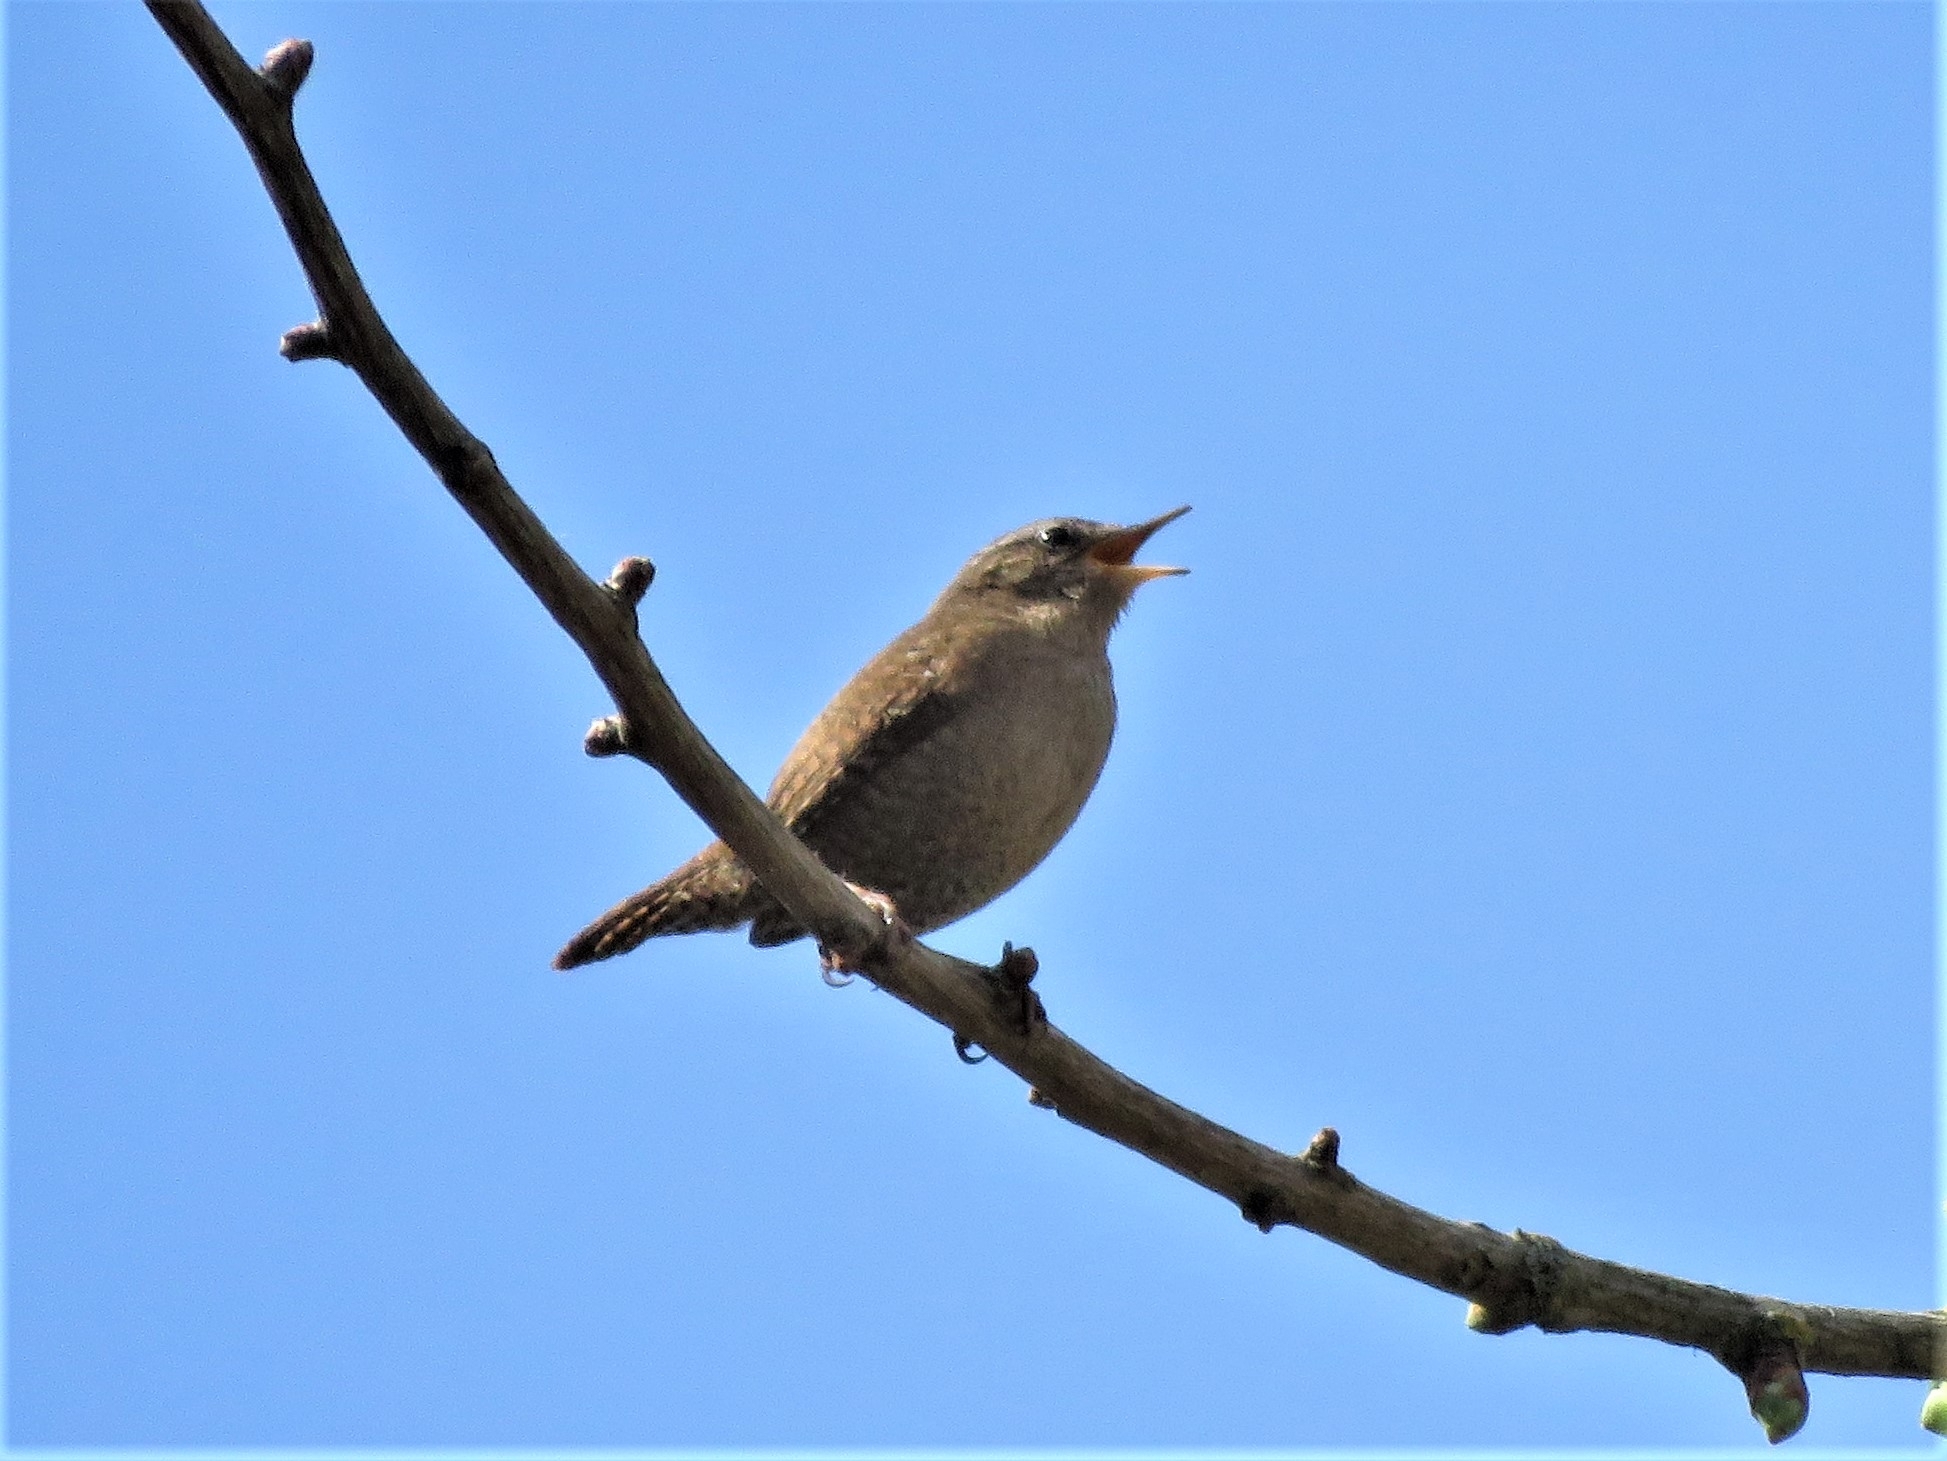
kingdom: Animalia
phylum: Chordata
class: Aves
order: Passeriformes
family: Troglodytidae
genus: Troglodytes
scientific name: Troglodytes troglodytes
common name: Eurasian wren
